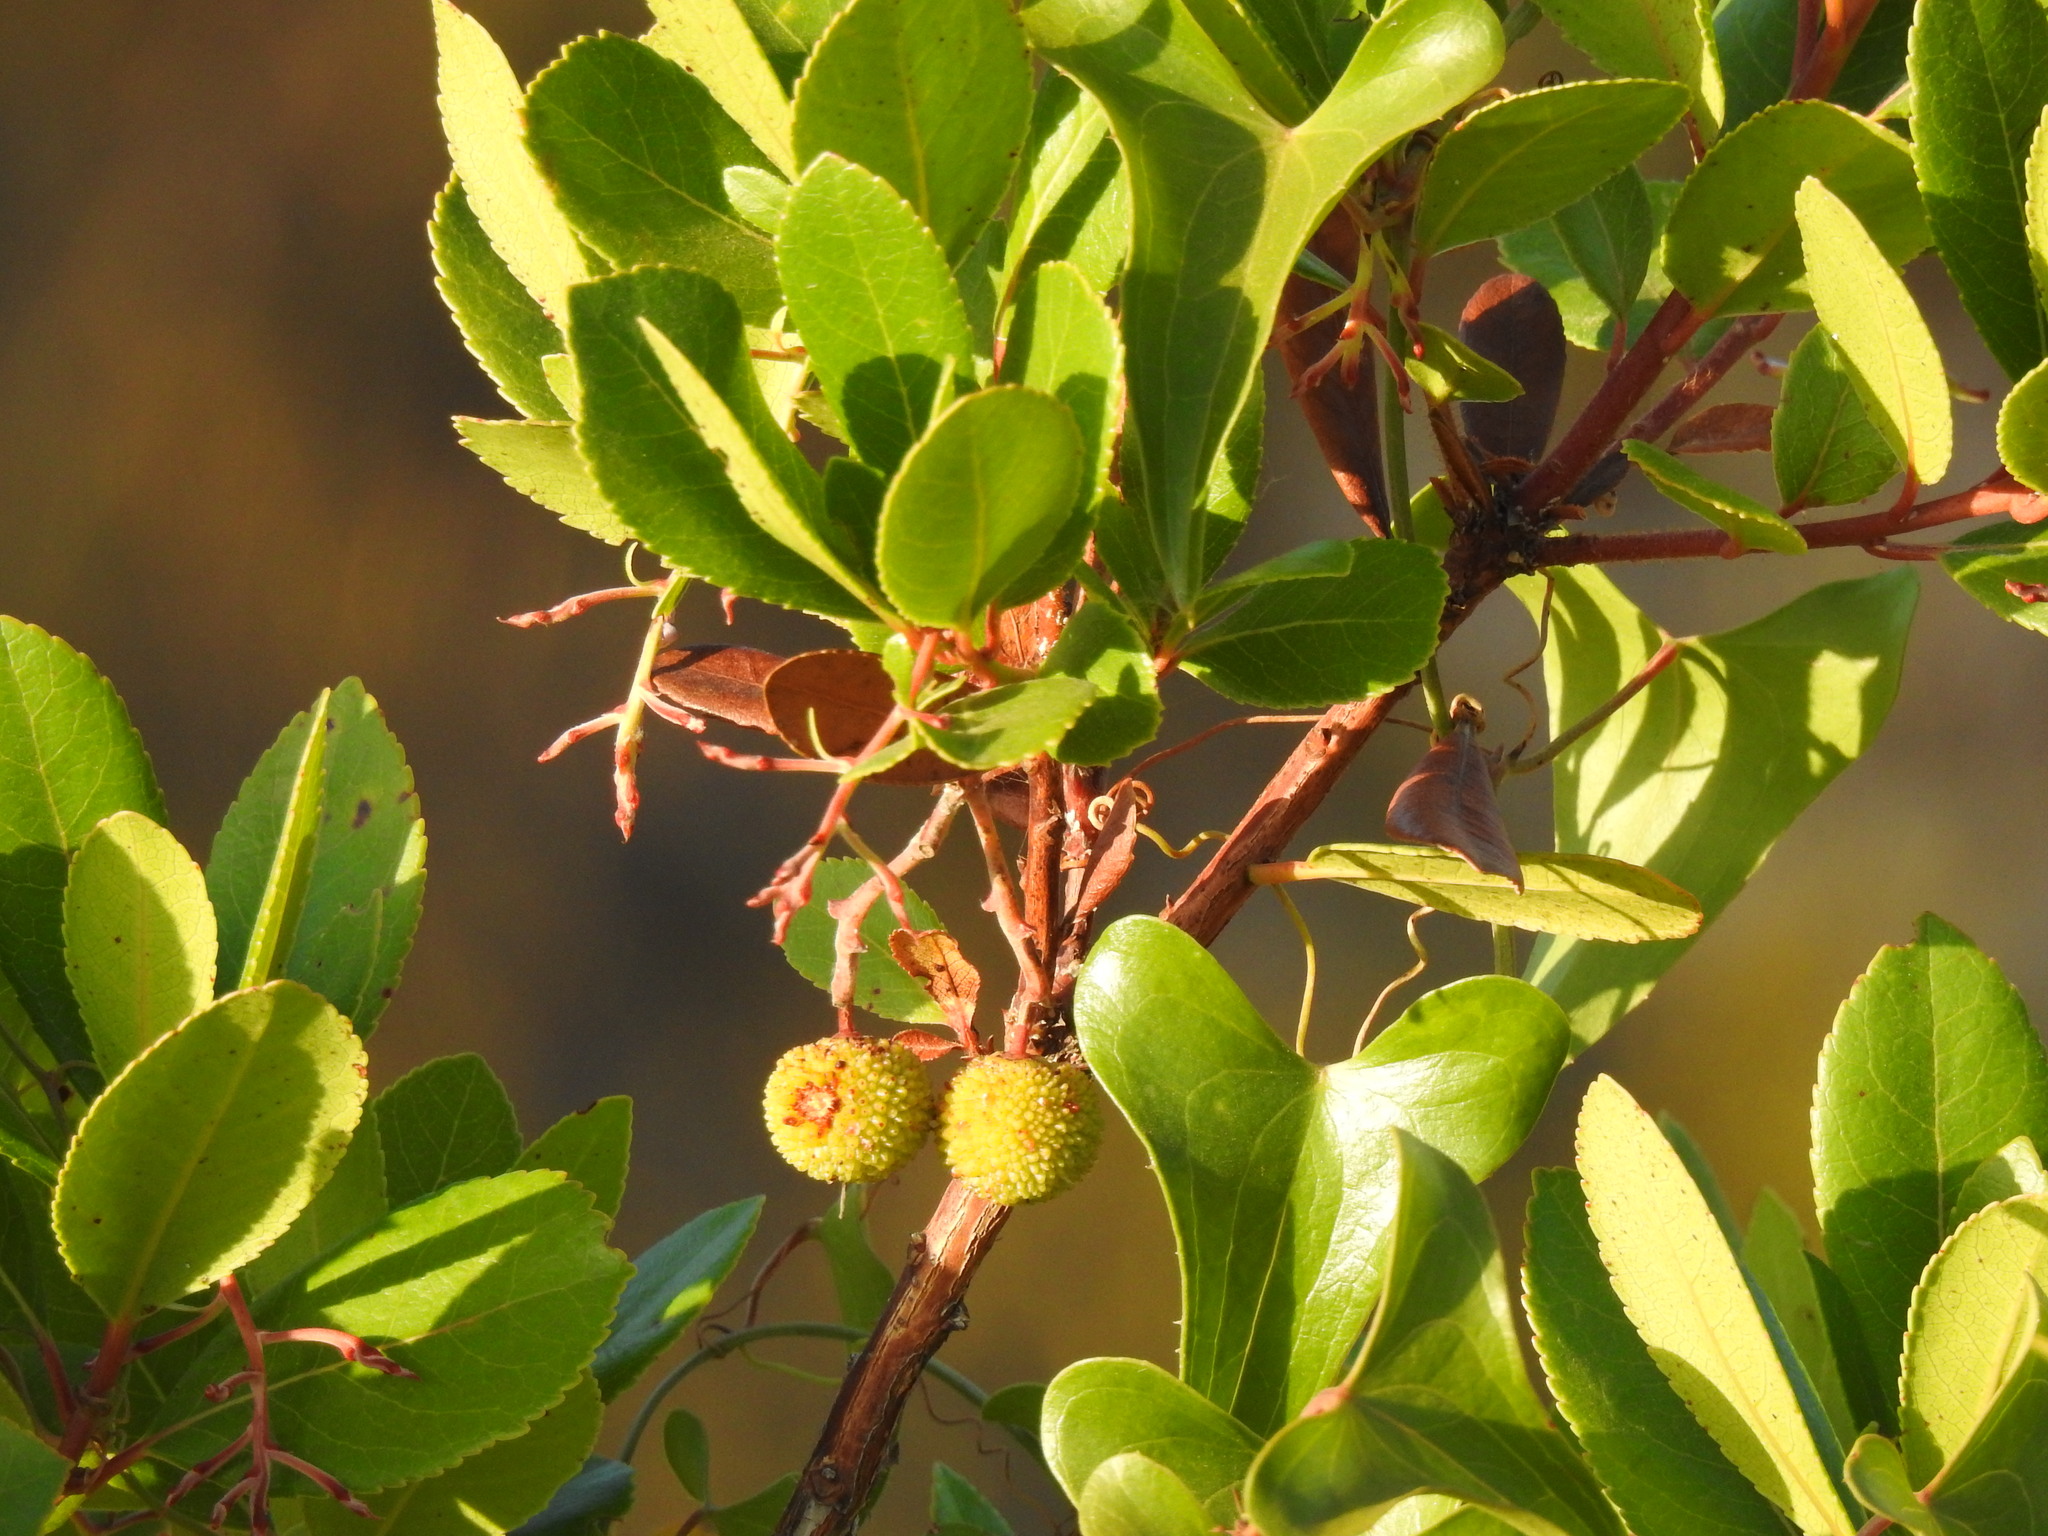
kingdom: Plantae
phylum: Tracheophyta
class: Magnoliopsida
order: Ericales
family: Ericaceae
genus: Arbutus
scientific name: Arbutus unedo
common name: Strawberry-tree
